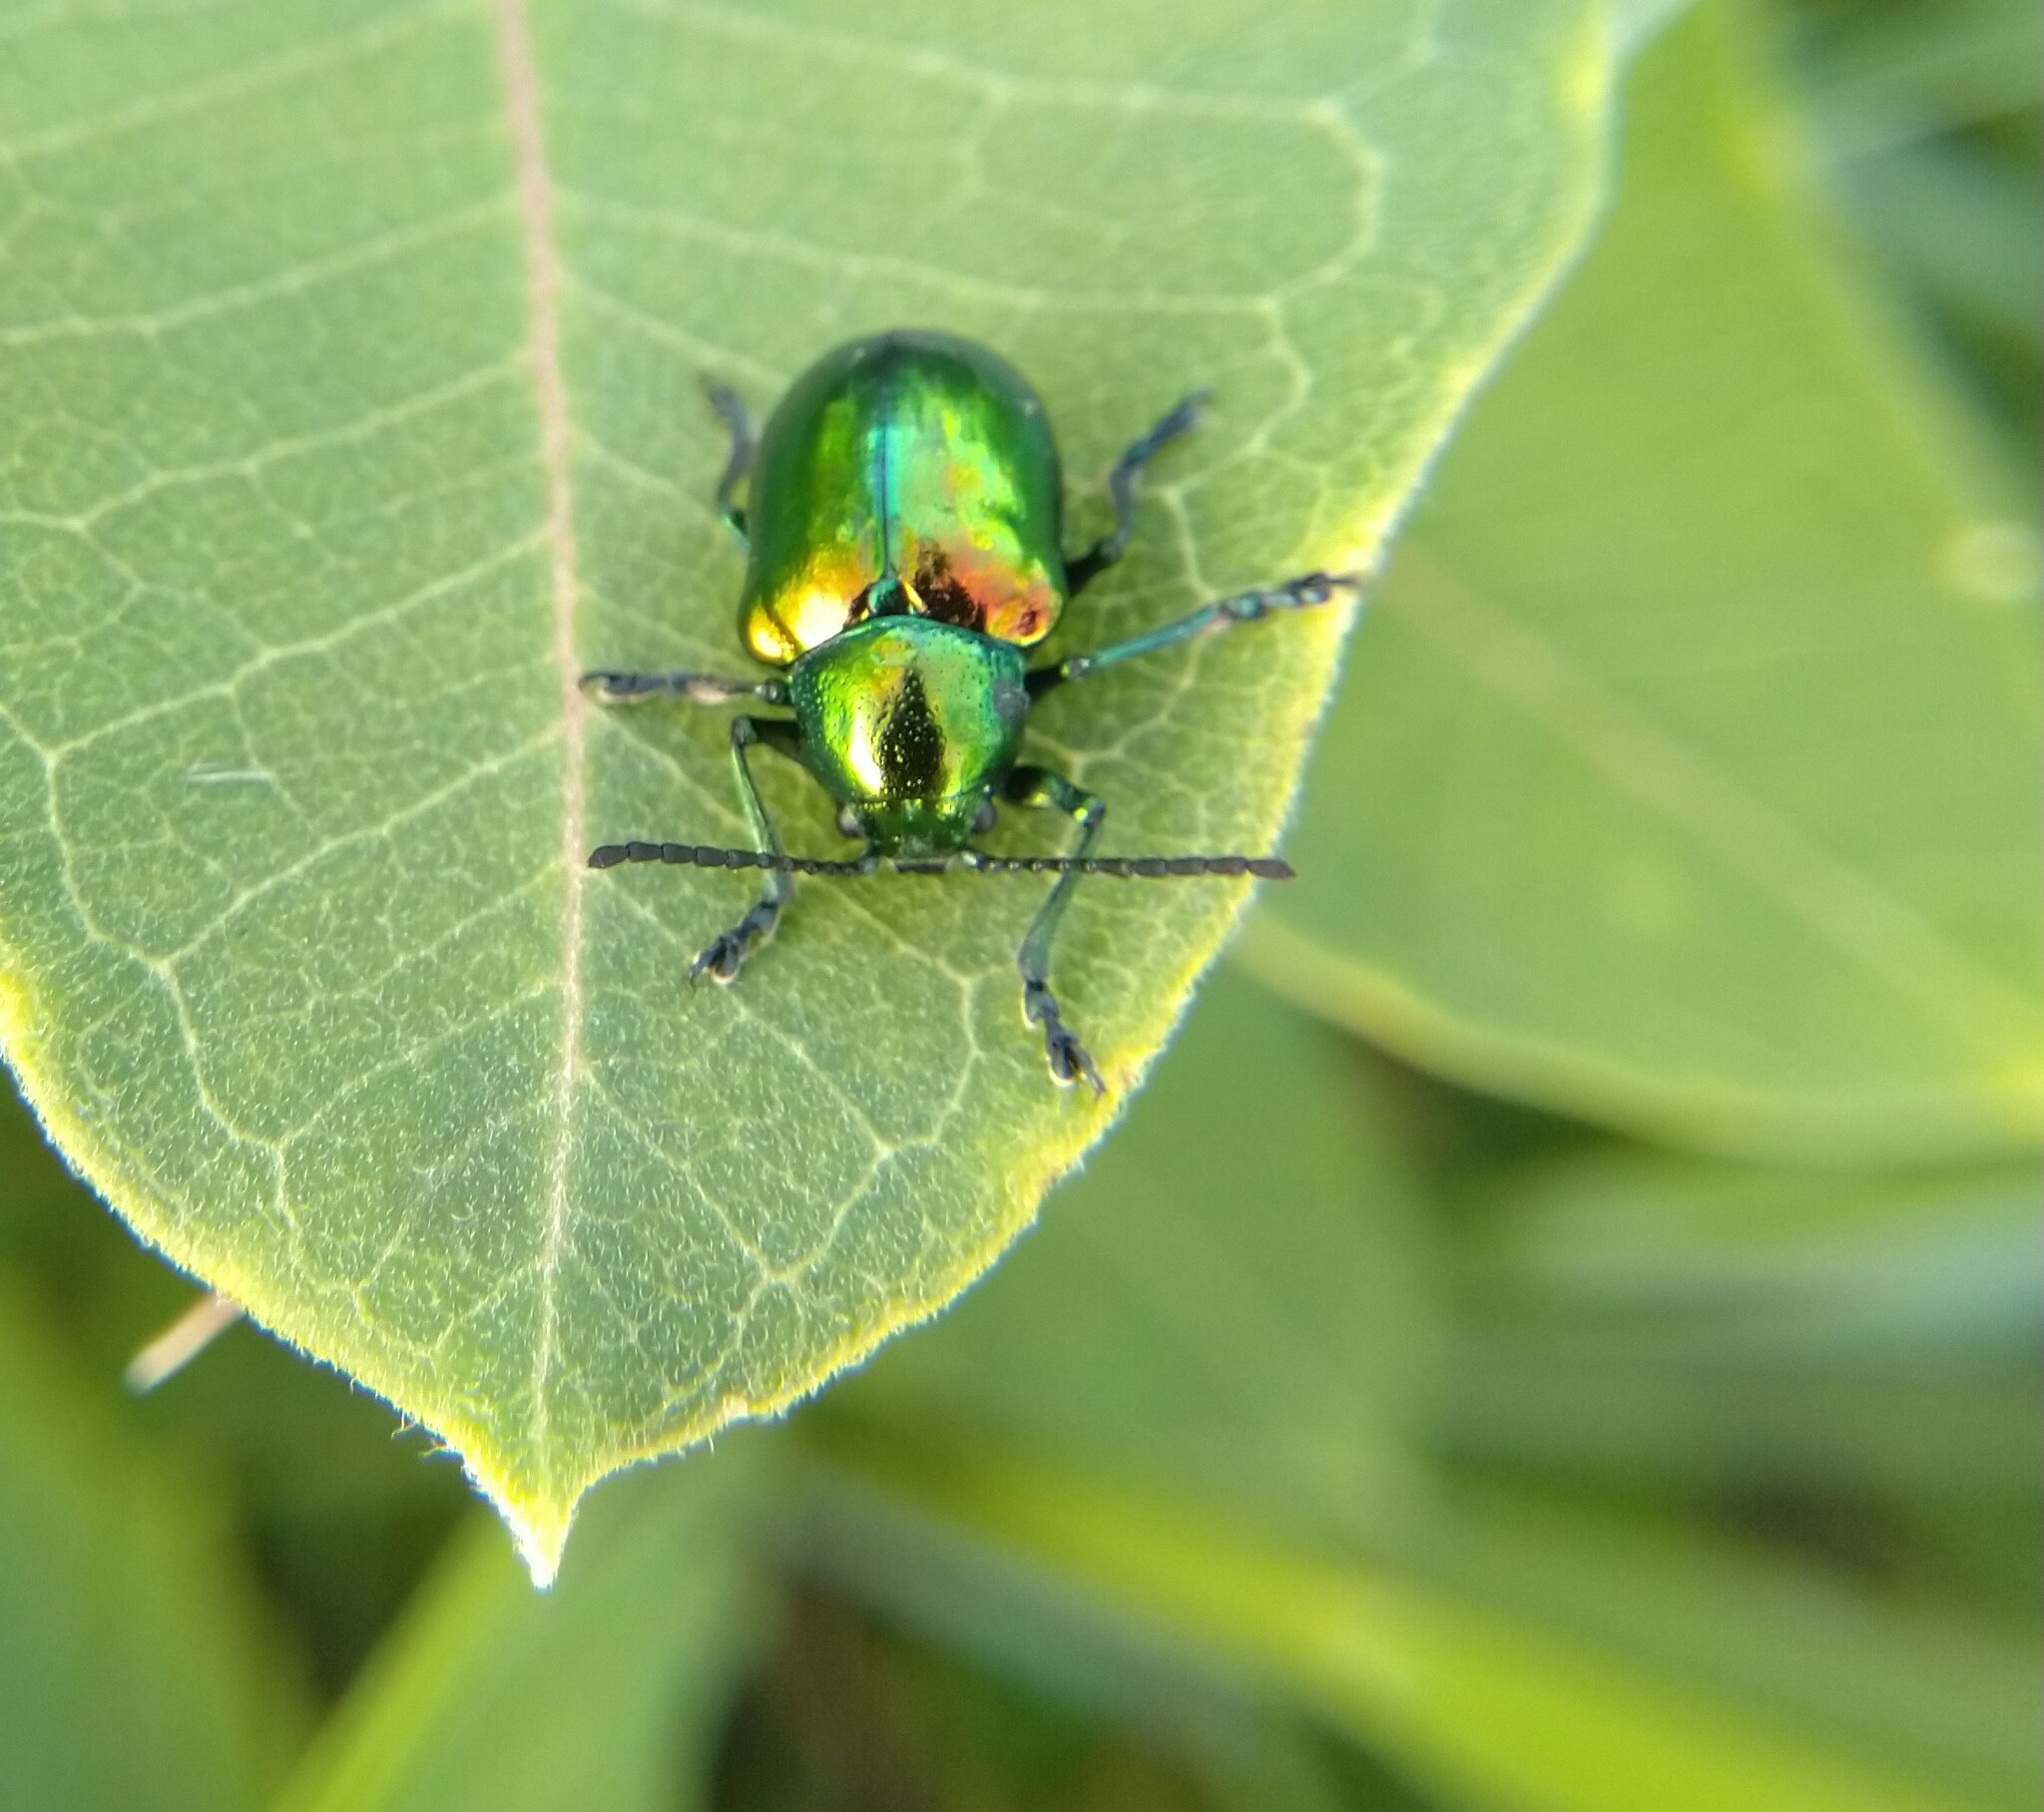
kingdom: Animalia
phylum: Arthropoda
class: Insecta
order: Coleoptera
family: Chrysomelidae
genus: Chrysochus
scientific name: Chrysochus auratus
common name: Dogbane leaf beetle
